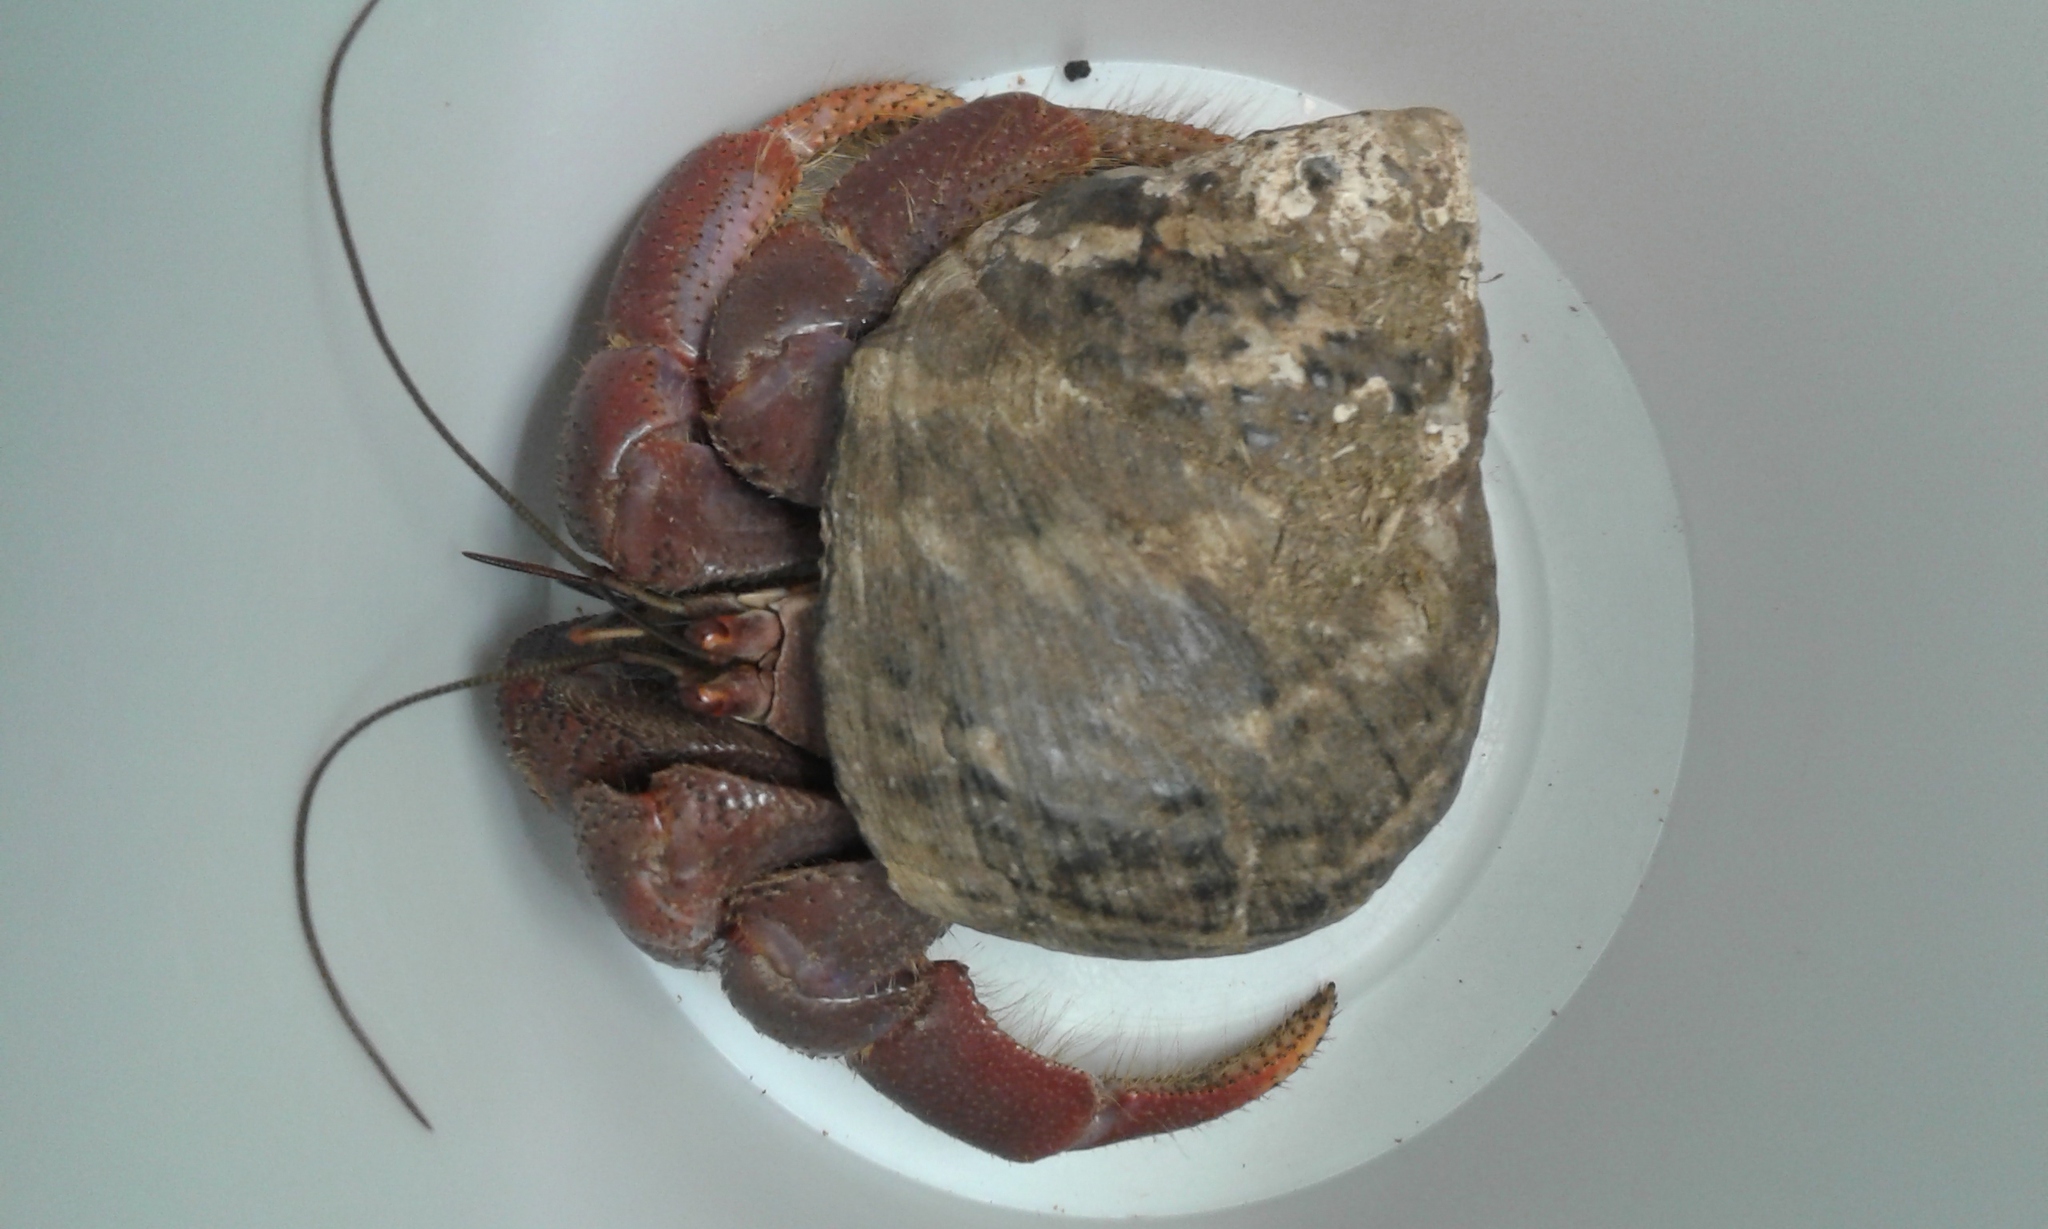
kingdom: Animalia
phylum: Arthropoda
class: Malacostraca
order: Decapoda
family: Coenobitidae
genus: Coenobita
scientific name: Coenobita clypeatus
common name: Caribbean hermit crab
